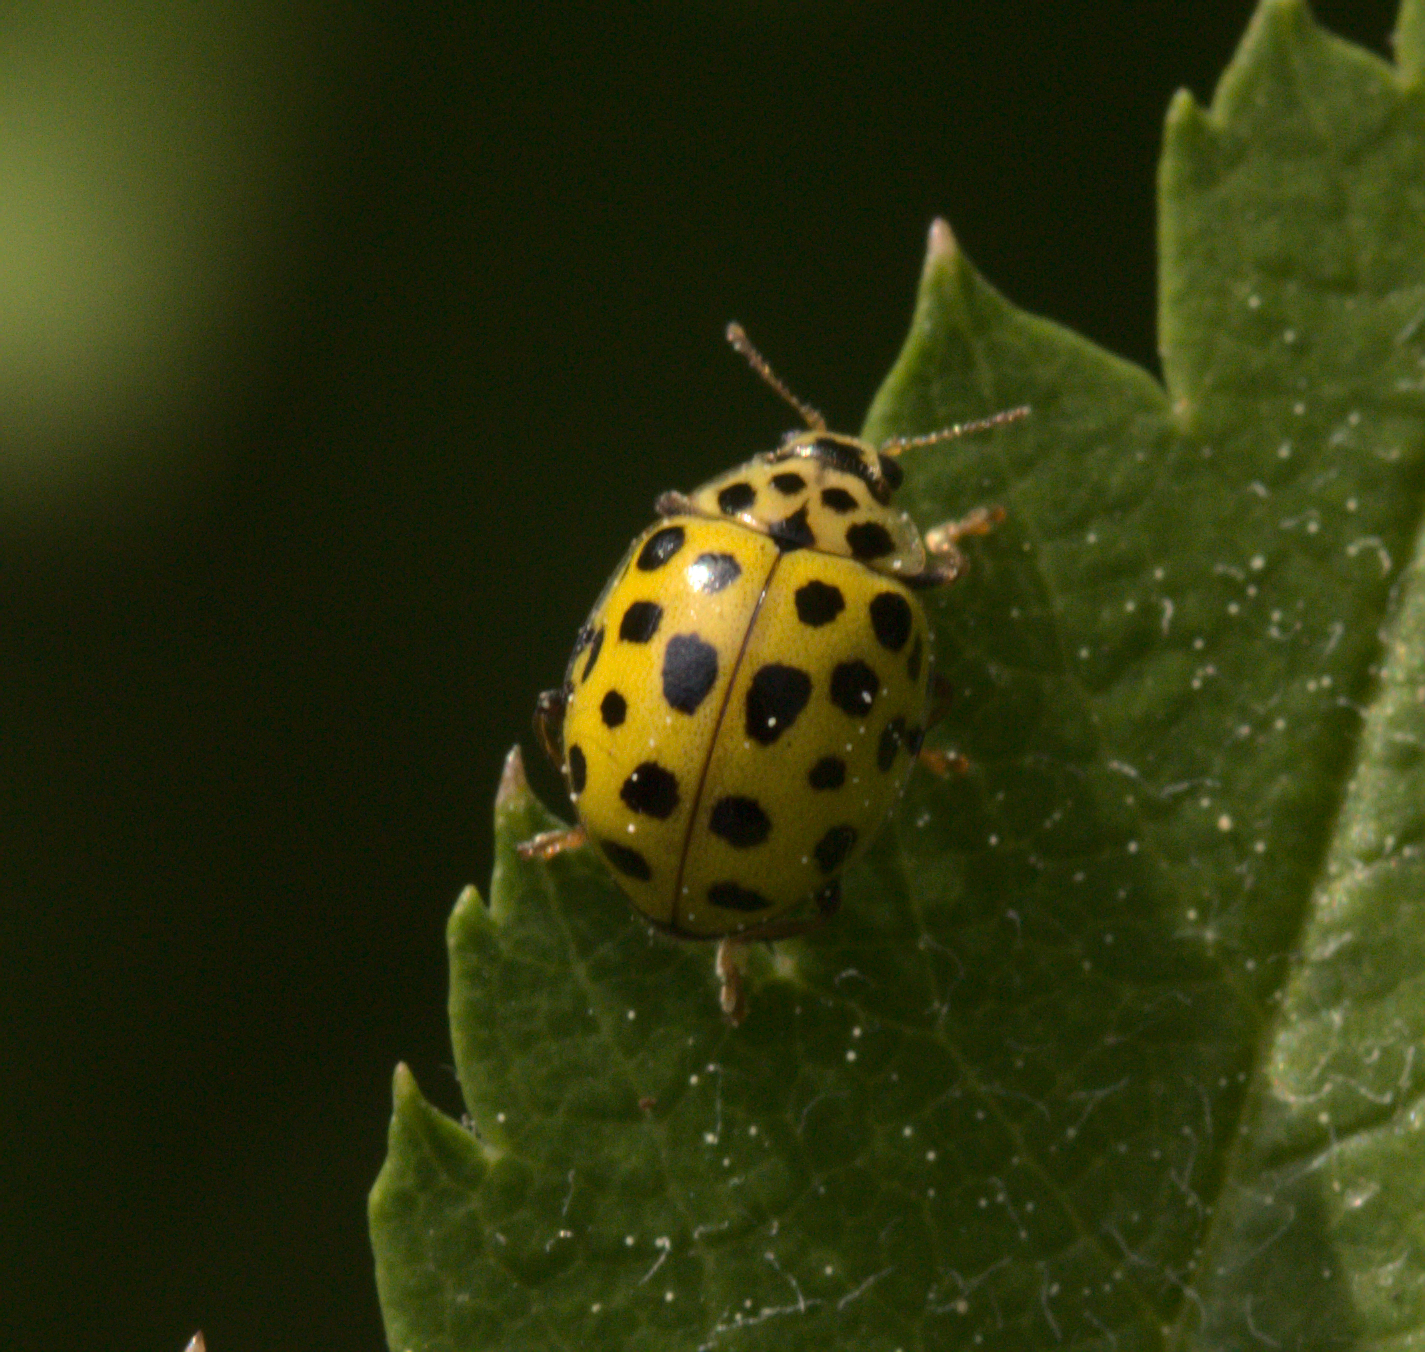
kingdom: Animalia
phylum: Arthropoda
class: Insecta
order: Coleoptera
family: Coccinellidae
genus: Psyllobora
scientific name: Psyllobora vigintiduopunctata
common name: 22-spot ladybird
